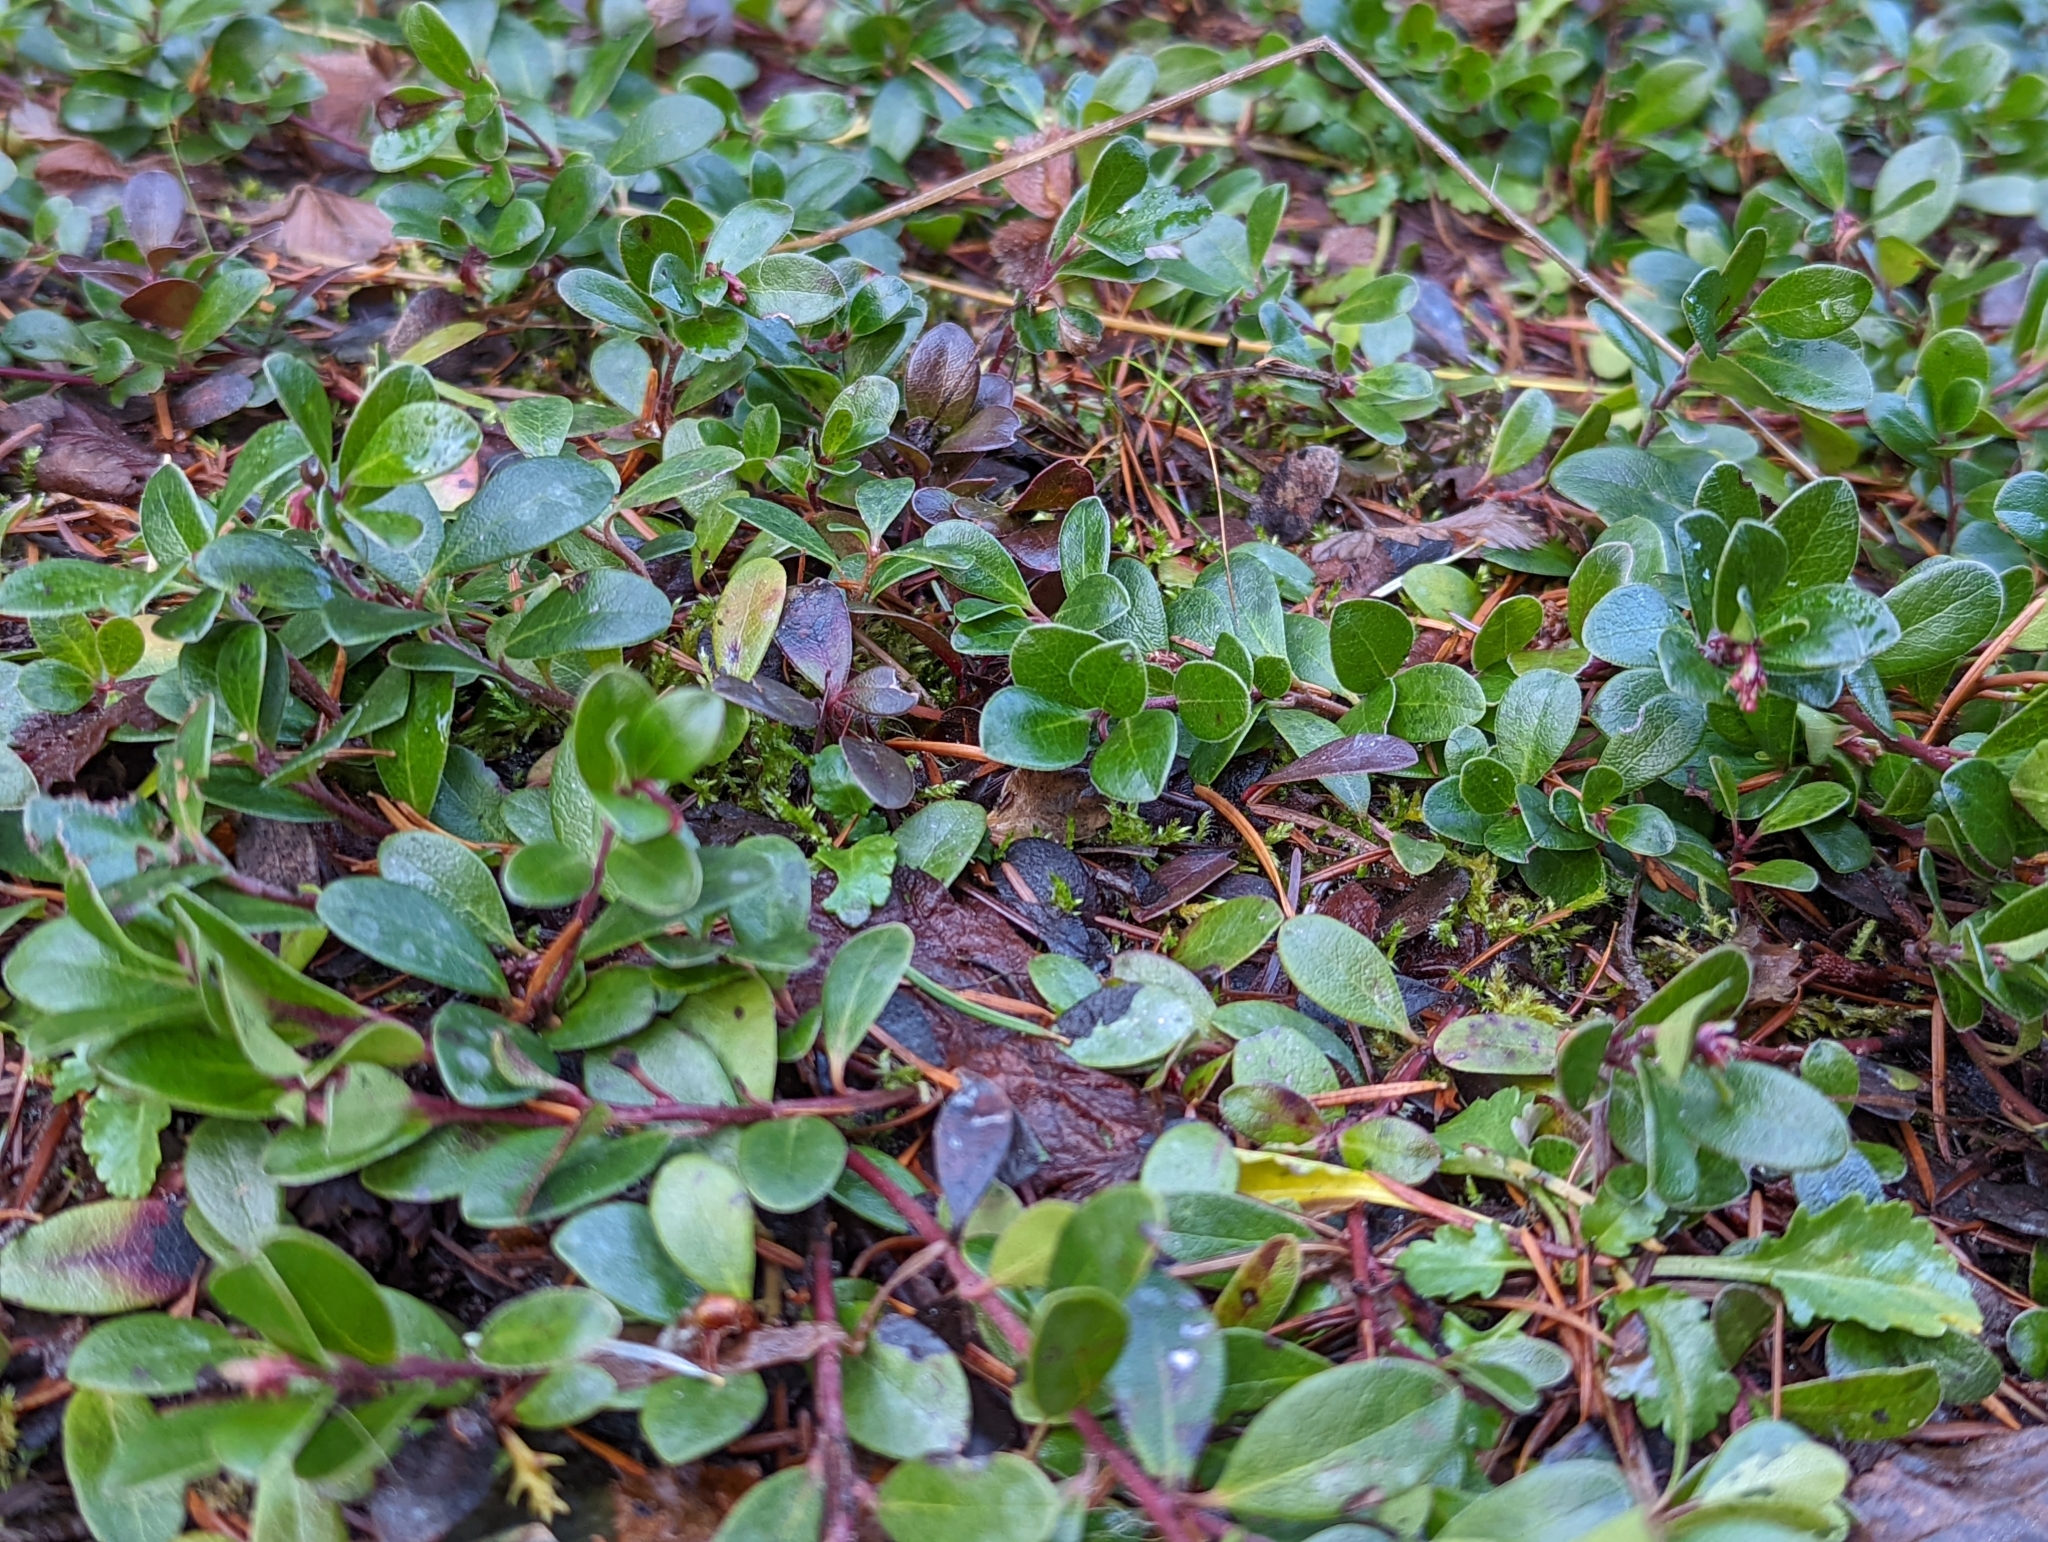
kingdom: Plantae
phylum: Tracheophyta
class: Magnoliopsida
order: Ericales
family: Ericaceae
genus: Arctostaphylos
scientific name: Arctostaphylos uva-ursi
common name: Bearberry
